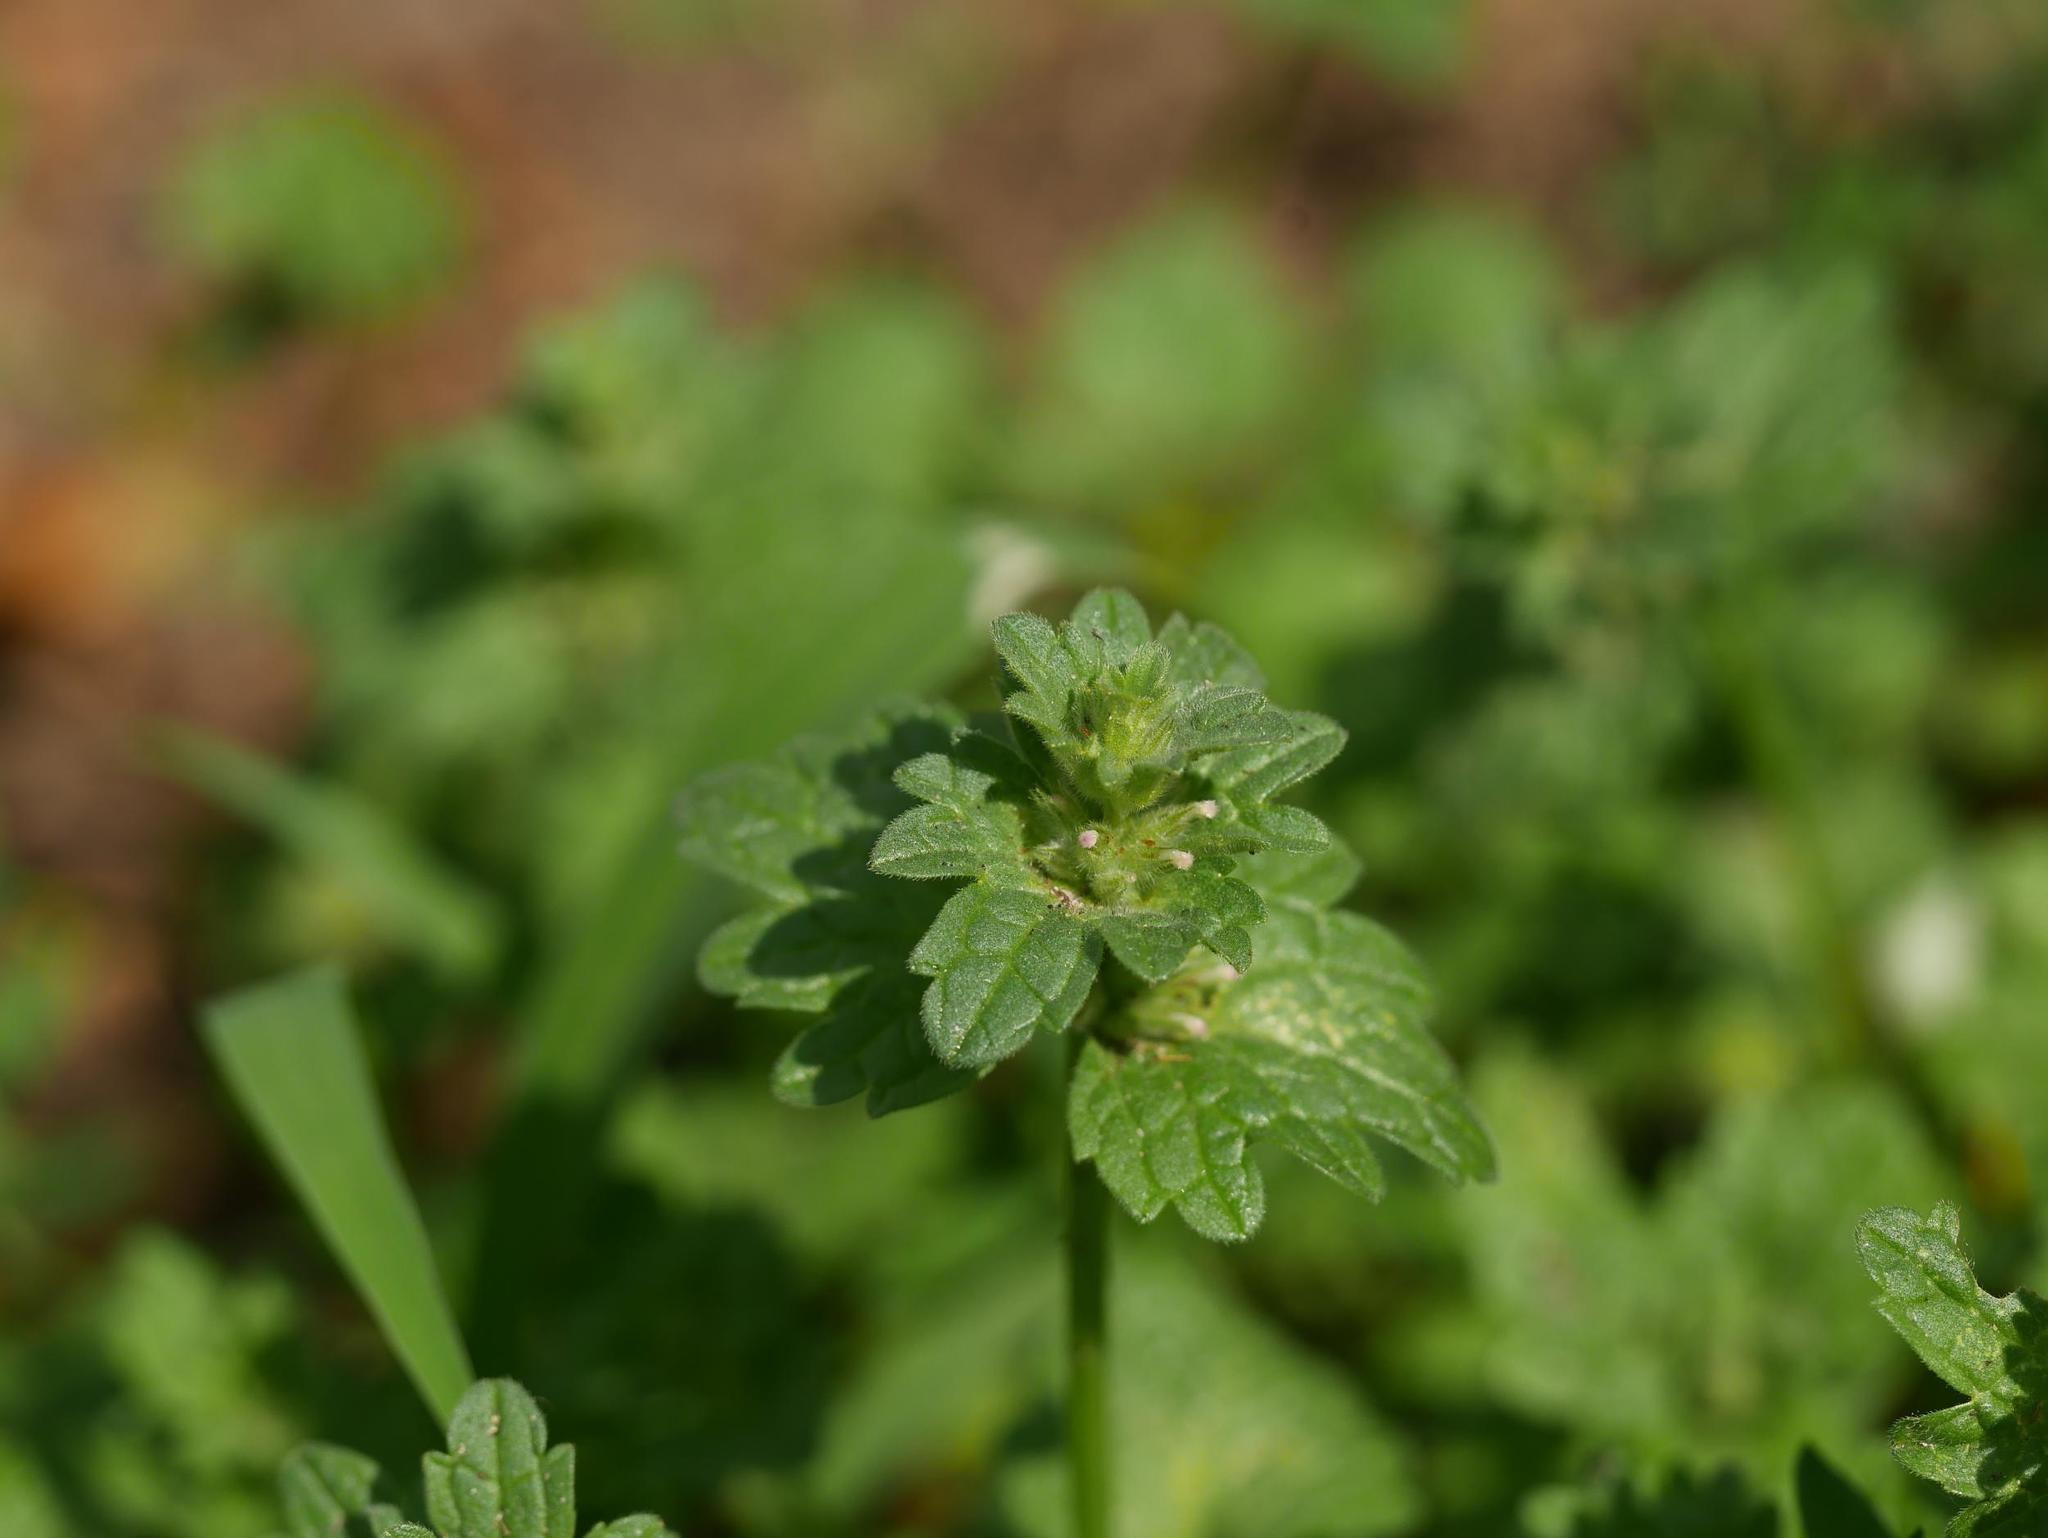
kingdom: Plantae
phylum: Tracheophyta
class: Magnoliopsida
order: Lamiales
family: Lamiaceae
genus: Lamium
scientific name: Lamium amplexicaule
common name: Henbit dead-nettle
